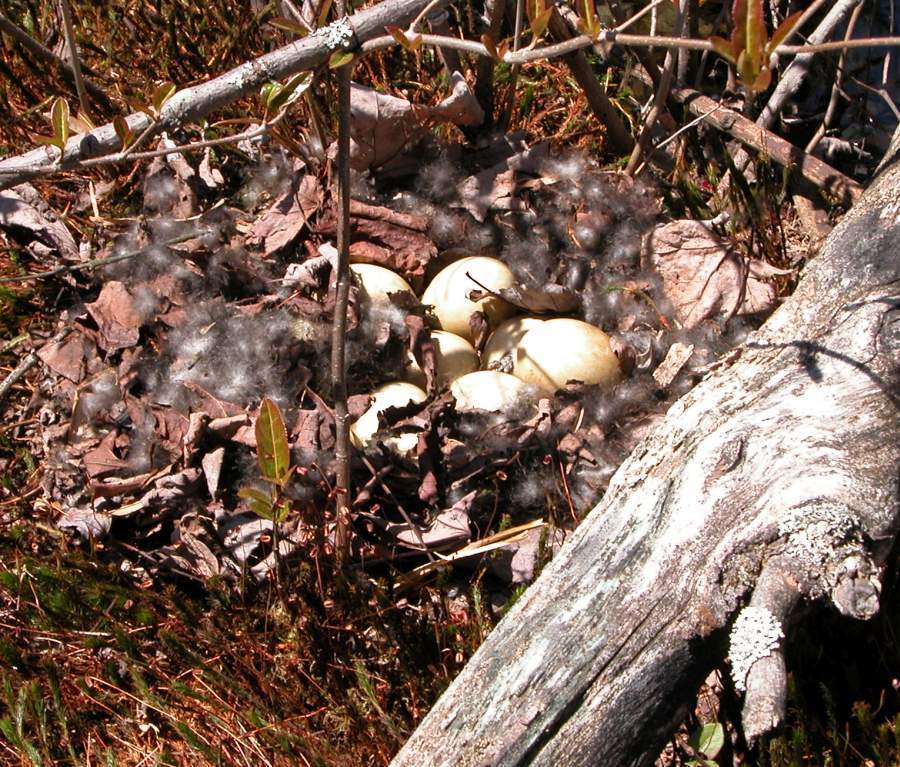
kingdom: Animalia
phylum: Chordata
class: Aves
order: Anseriformes
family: Anatidae
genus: Anas
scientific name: Anas platyrhynchos
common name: Mallard
